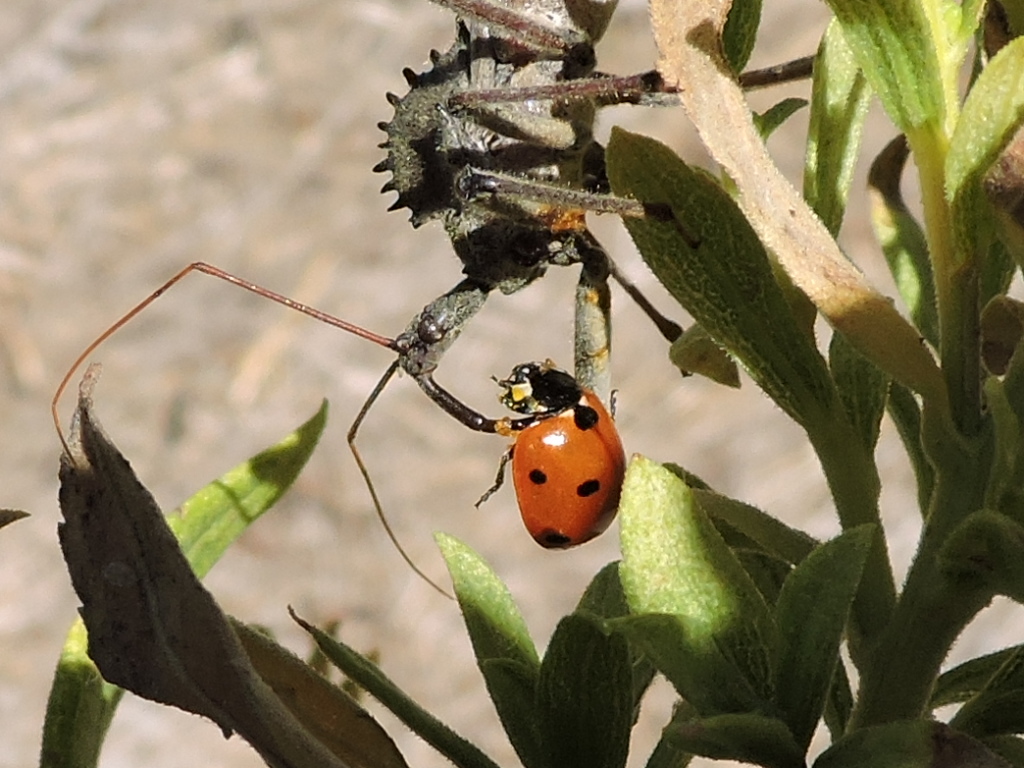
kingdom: Animalia
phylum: Arthropoda
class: Insecta
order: Coleoptera
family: Coccinellidae
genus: Coccinella
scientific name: Coccinella septempunctata
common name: Sevenspotted lady beetle
